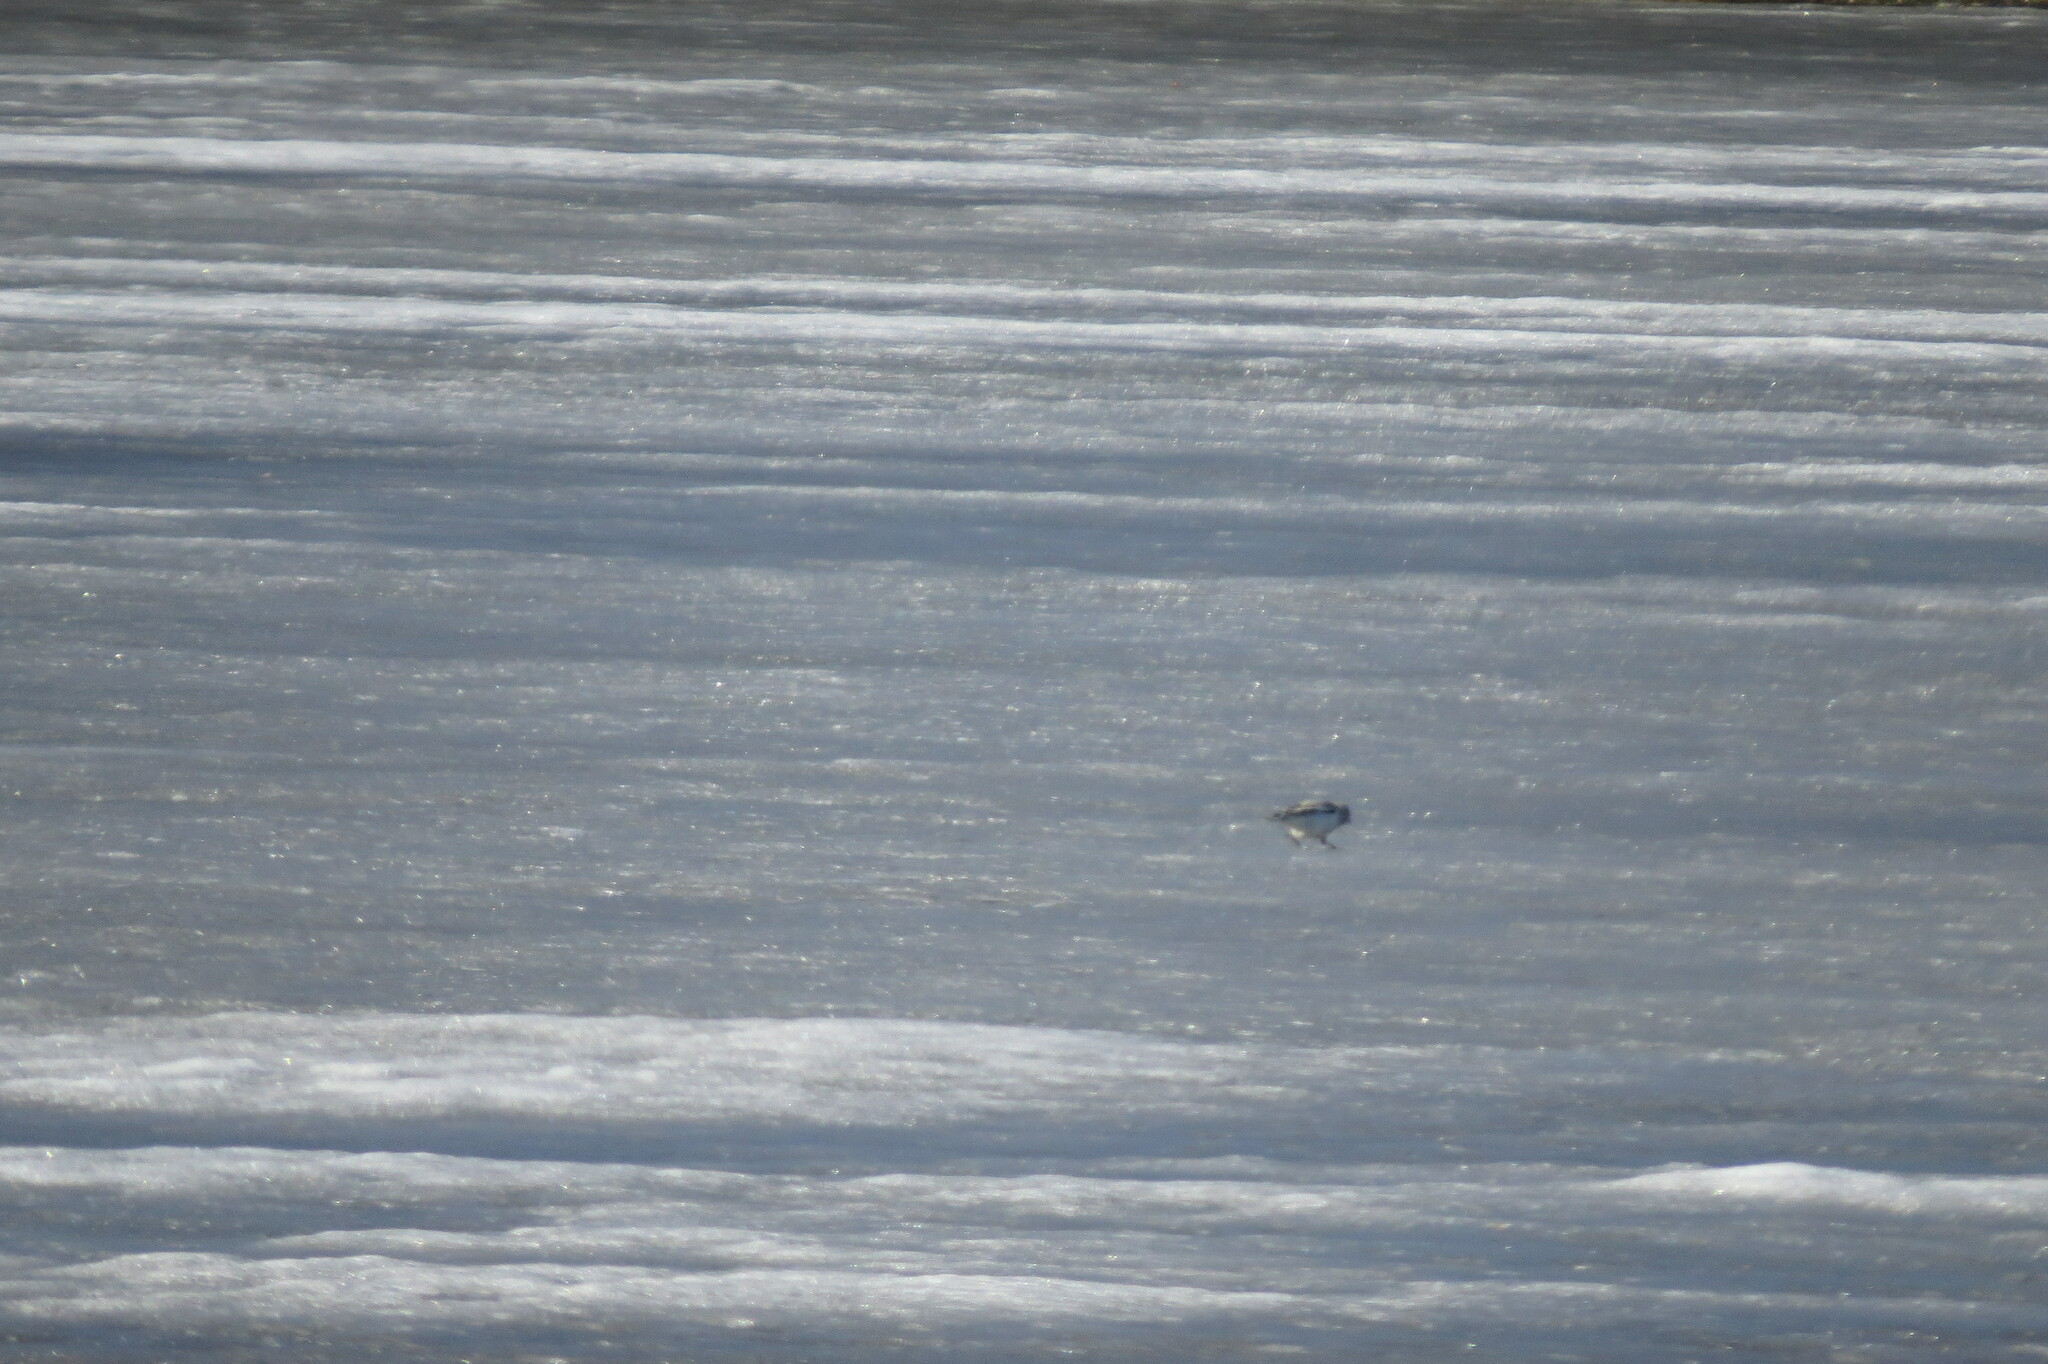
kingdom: Animalia
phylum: Chordata
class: Aves
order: Passeriformes
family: Calcariidae
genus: Plectrophenax
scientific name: Plectrophenax nivalis
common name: Snow bunting
